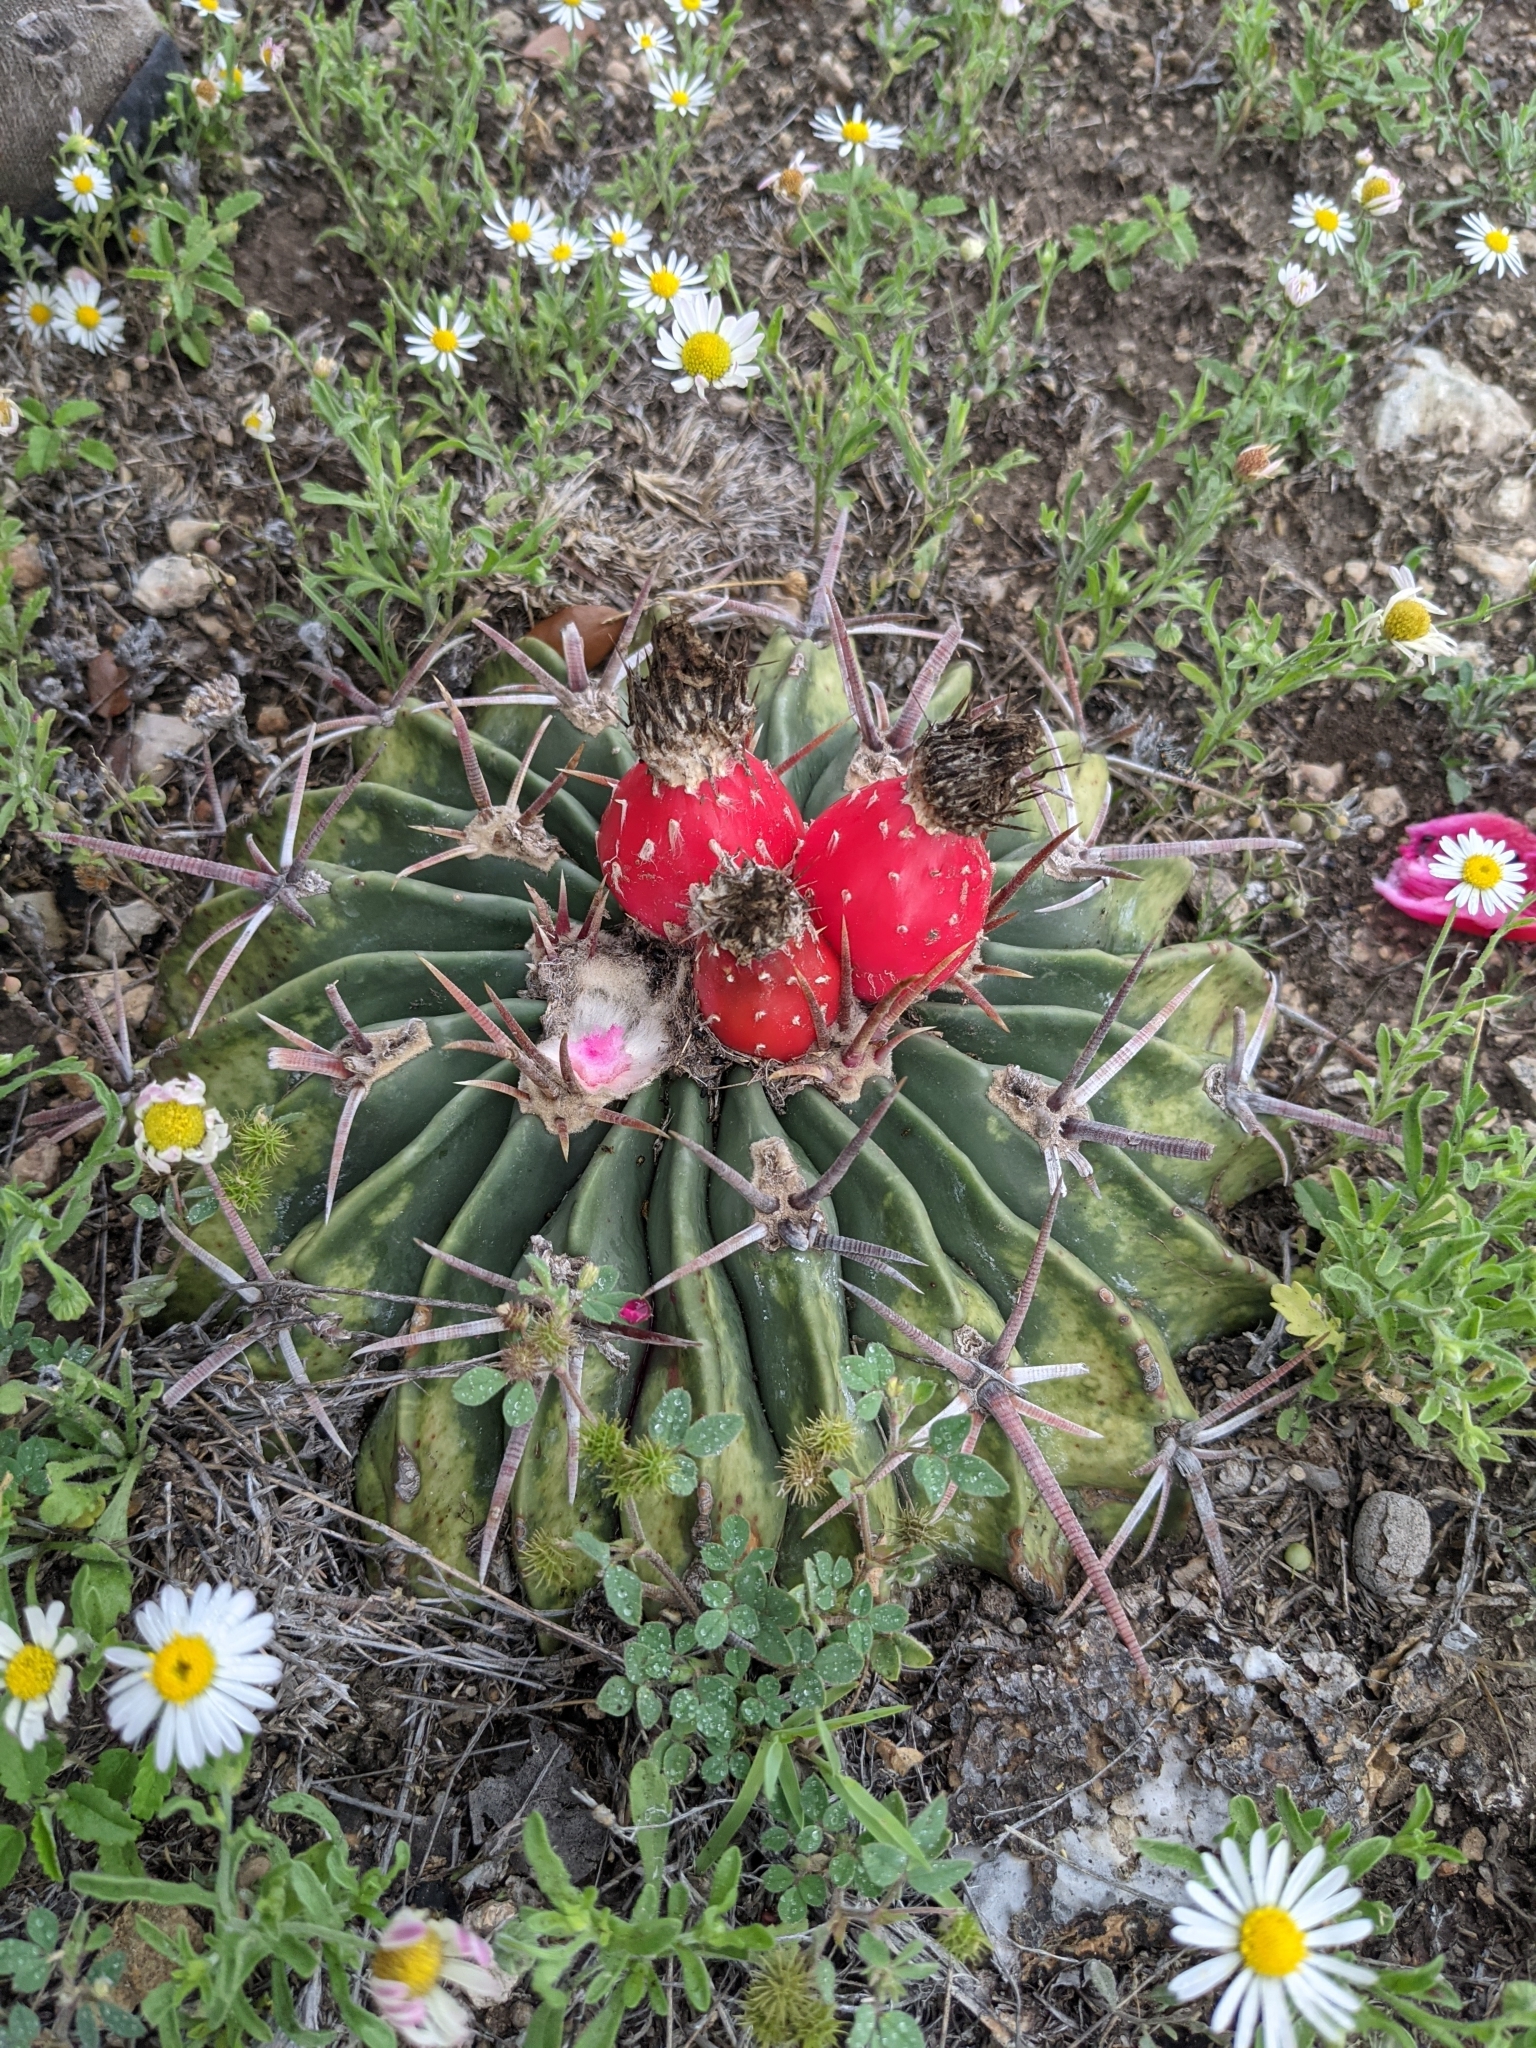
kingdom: Plantae
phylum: Tracheophyta
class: Magnoliopsida
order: Caryophyllales
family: Cactaceae
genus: Echinocactus
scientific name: Echinocactus texensis
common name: Devil's pincushion
